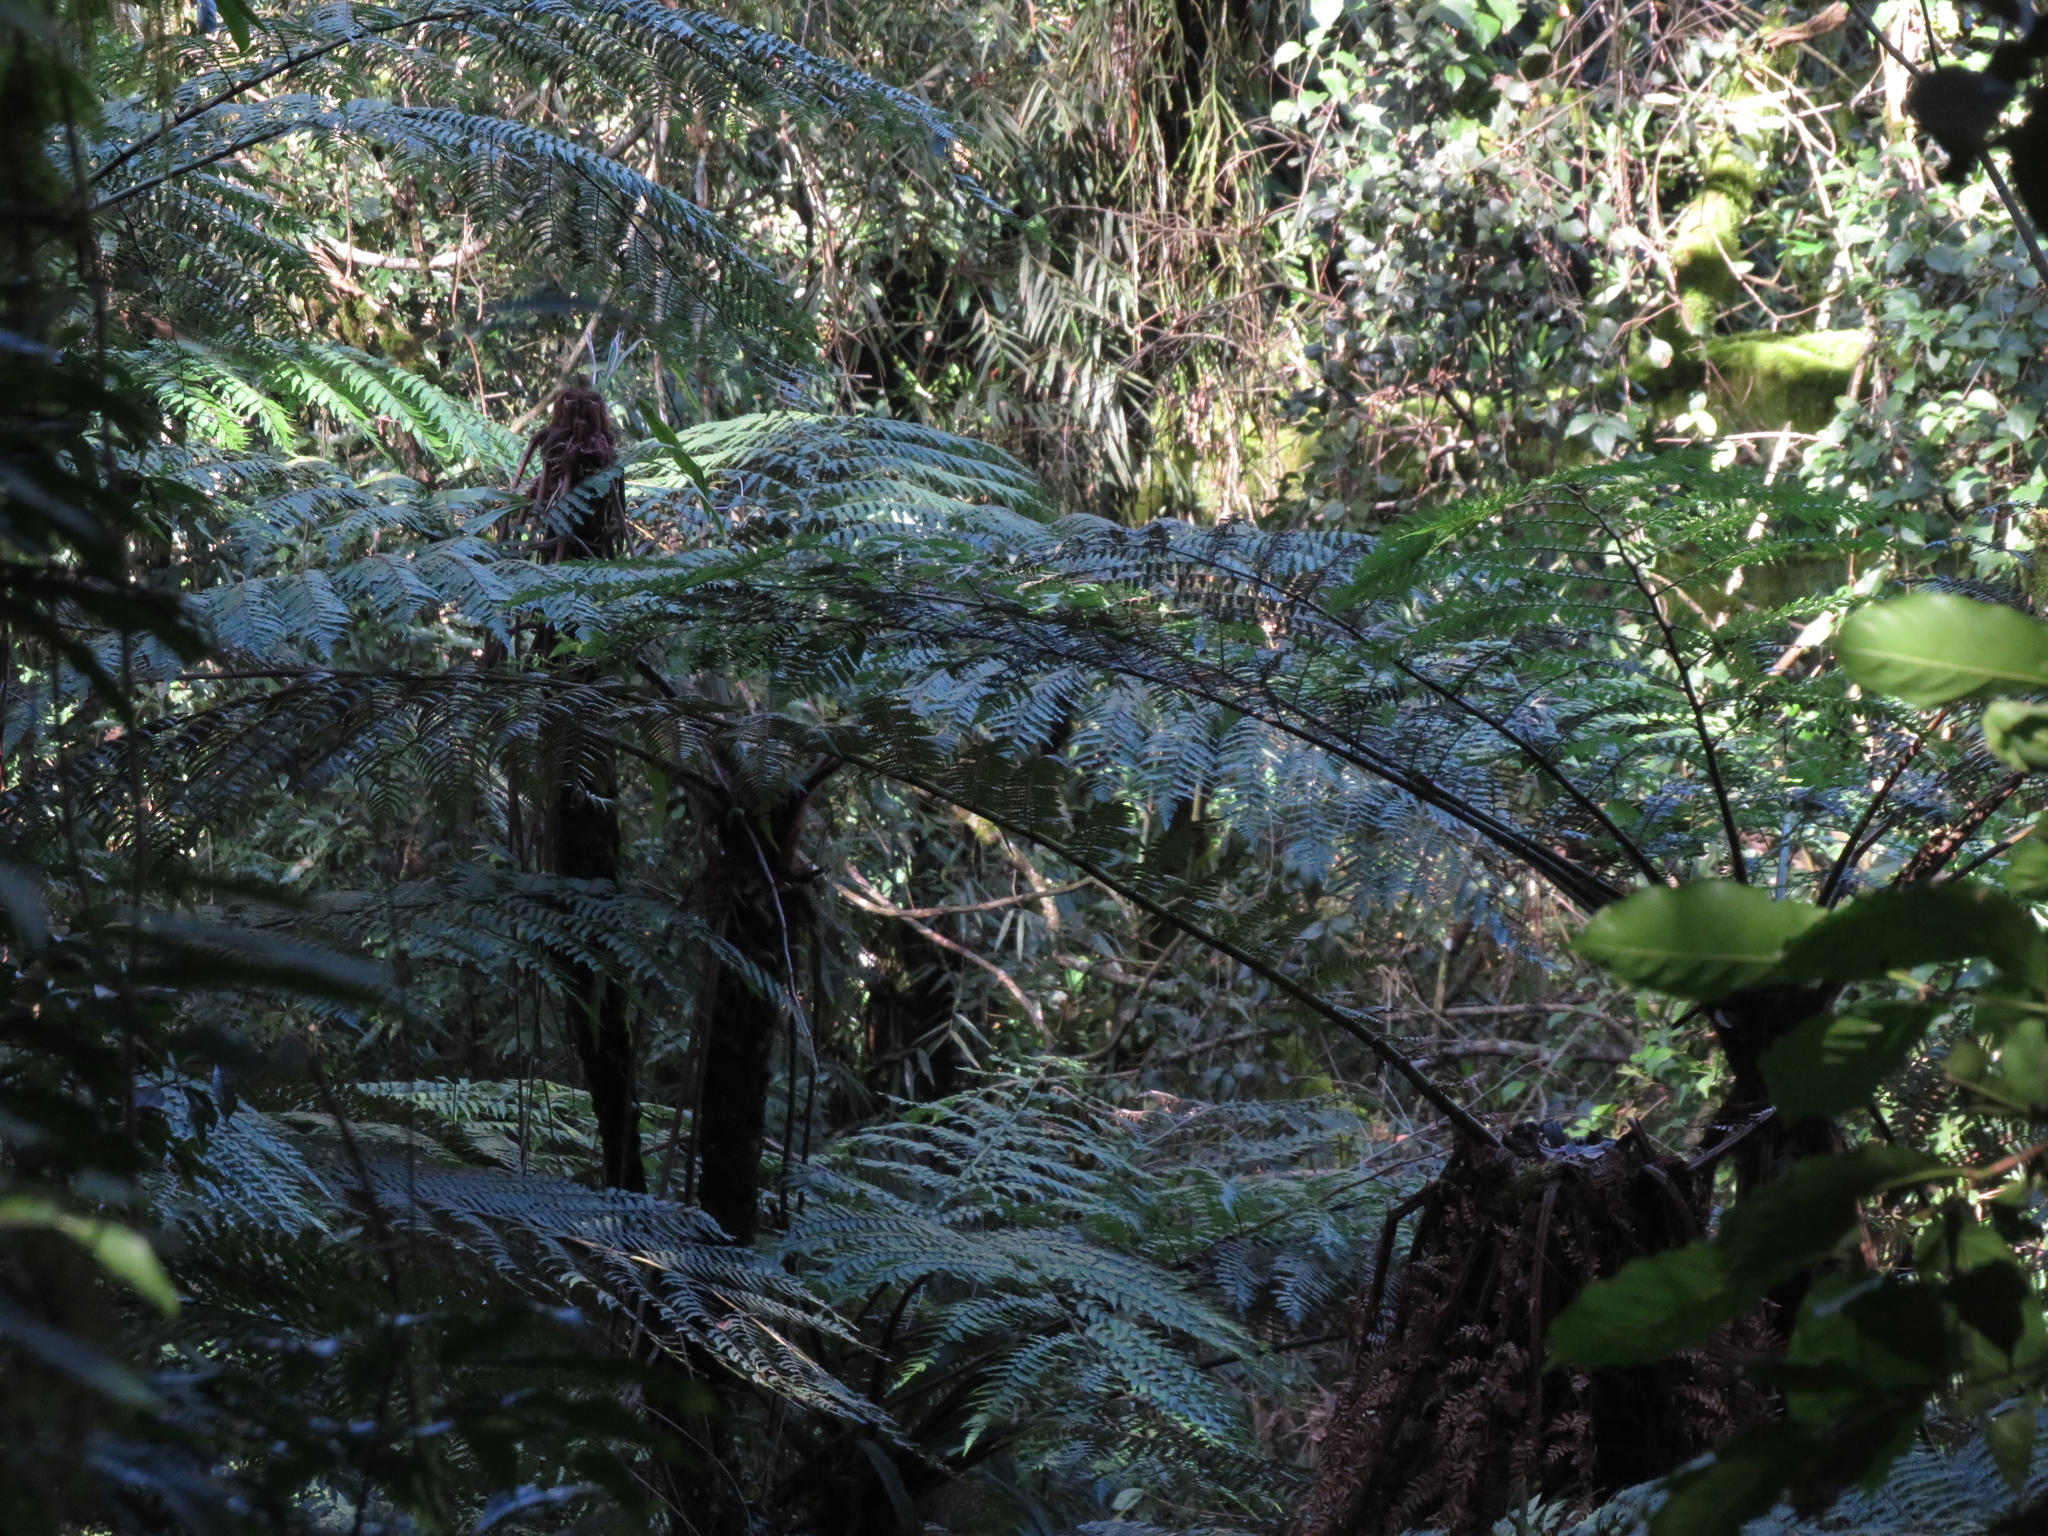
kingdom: Plantae
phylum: Tracheophyta
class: Polypodiopsida
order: Cyatheales
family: Cyatheaceae
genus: Alsophila
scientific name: Alsophila setosa
